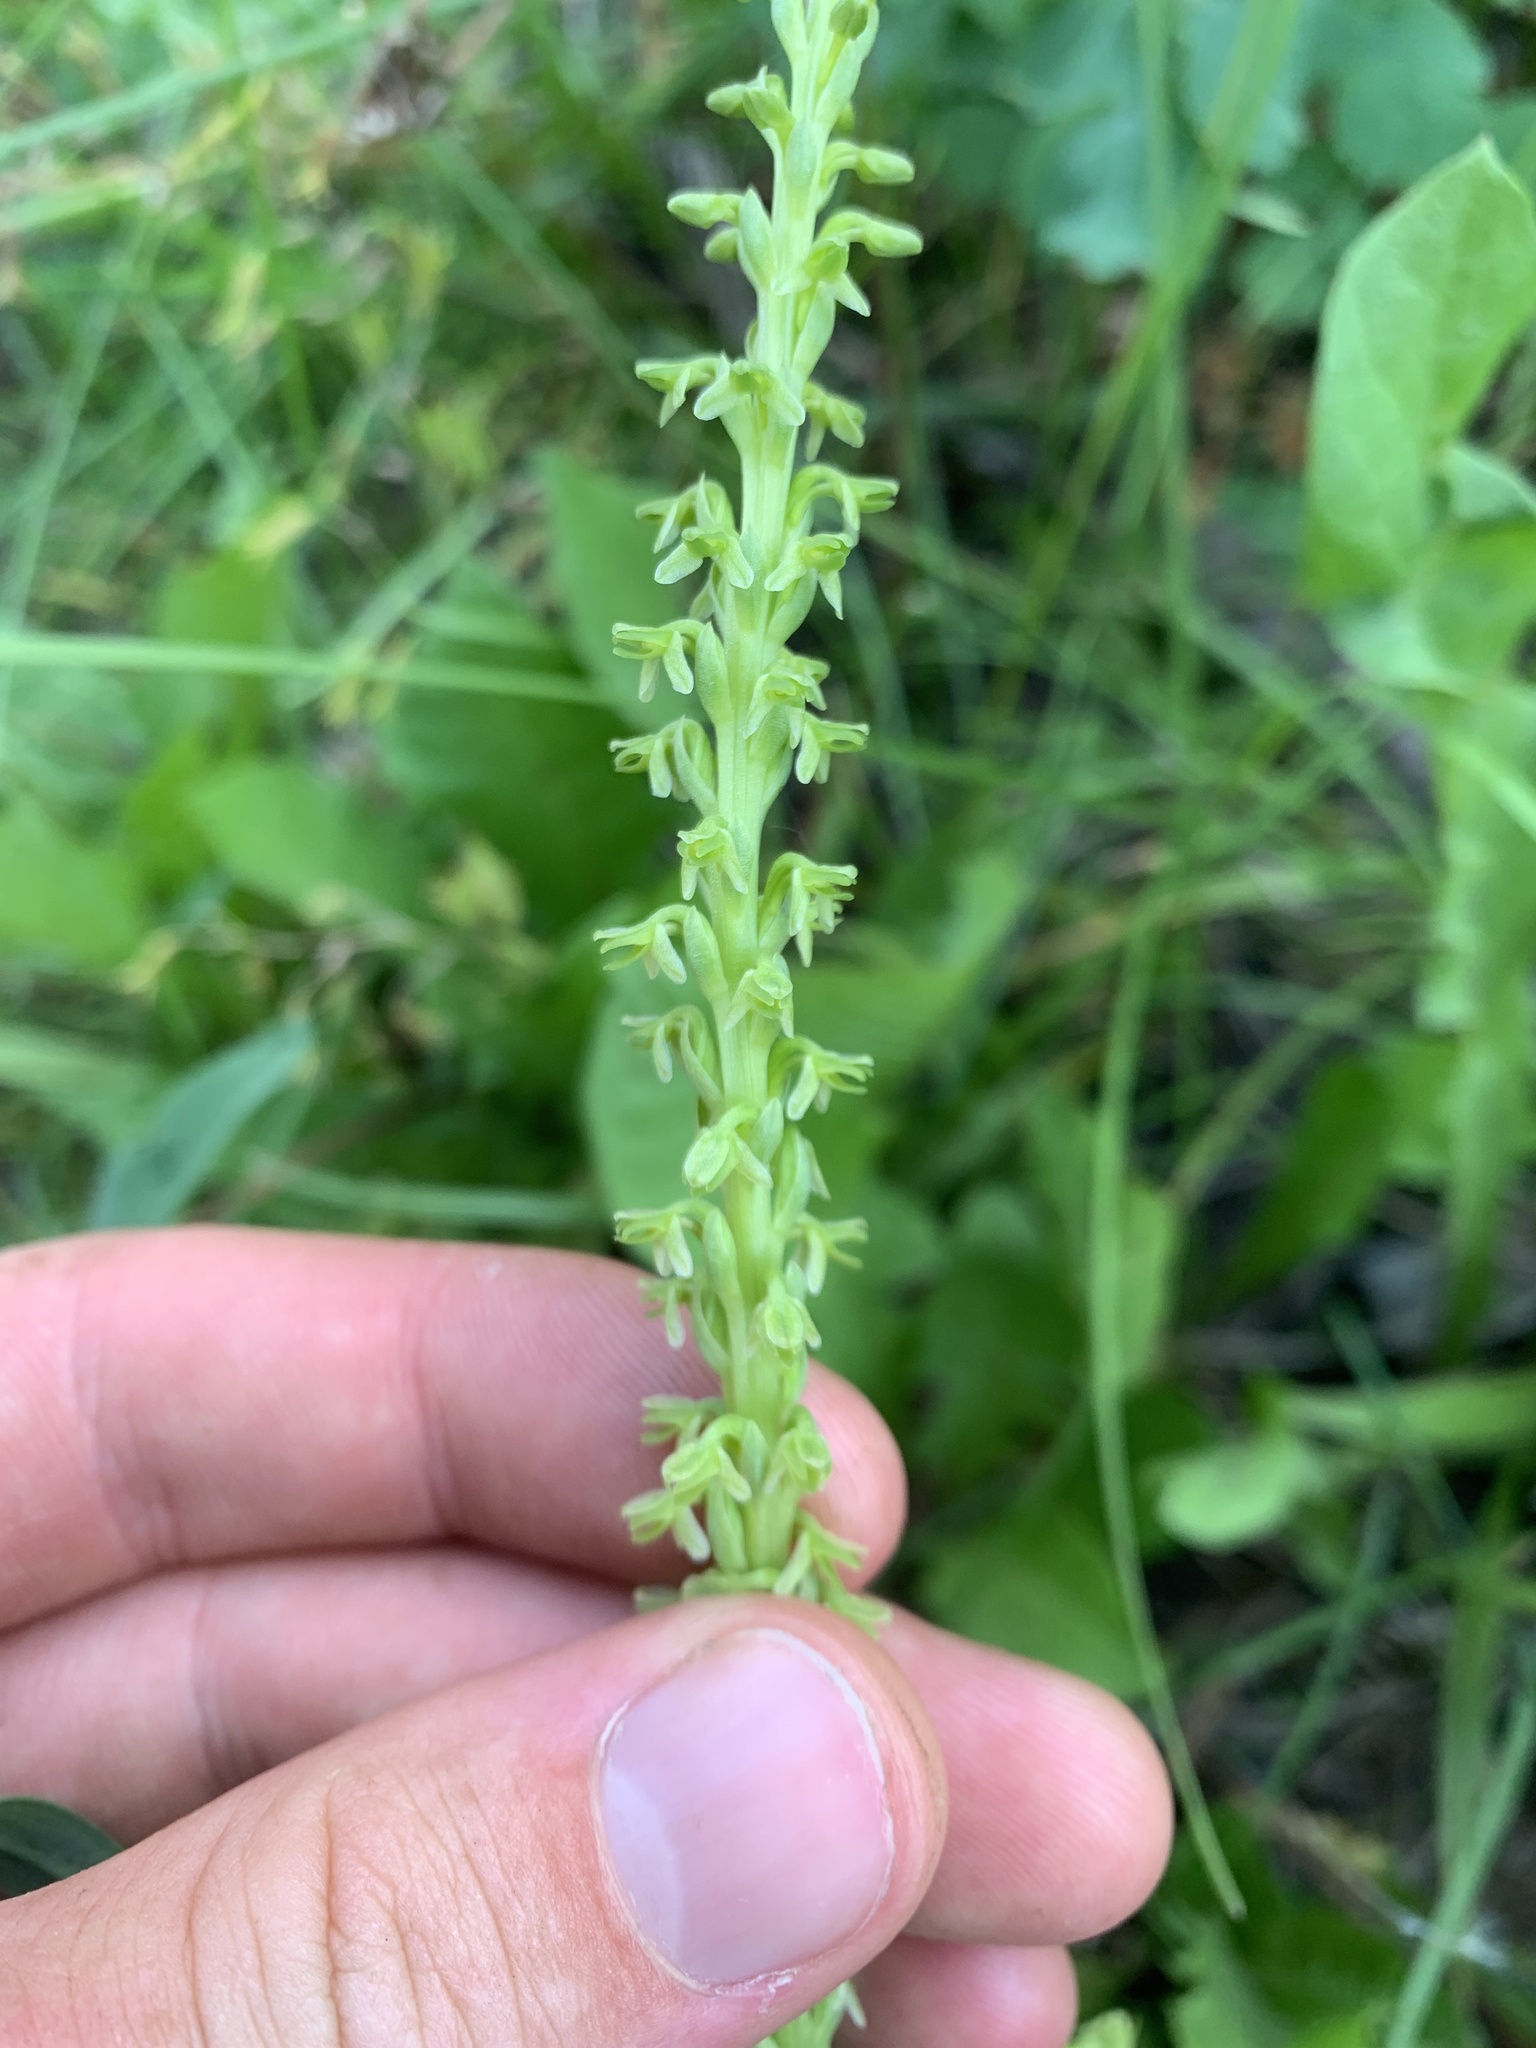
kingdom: Plantae
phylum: Tracheophyta
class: Liliopsida
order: Asparagales
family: Orchidaceae
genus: Platanthera
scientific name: Platanthera unalascensis
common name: Alaska bog orchid
